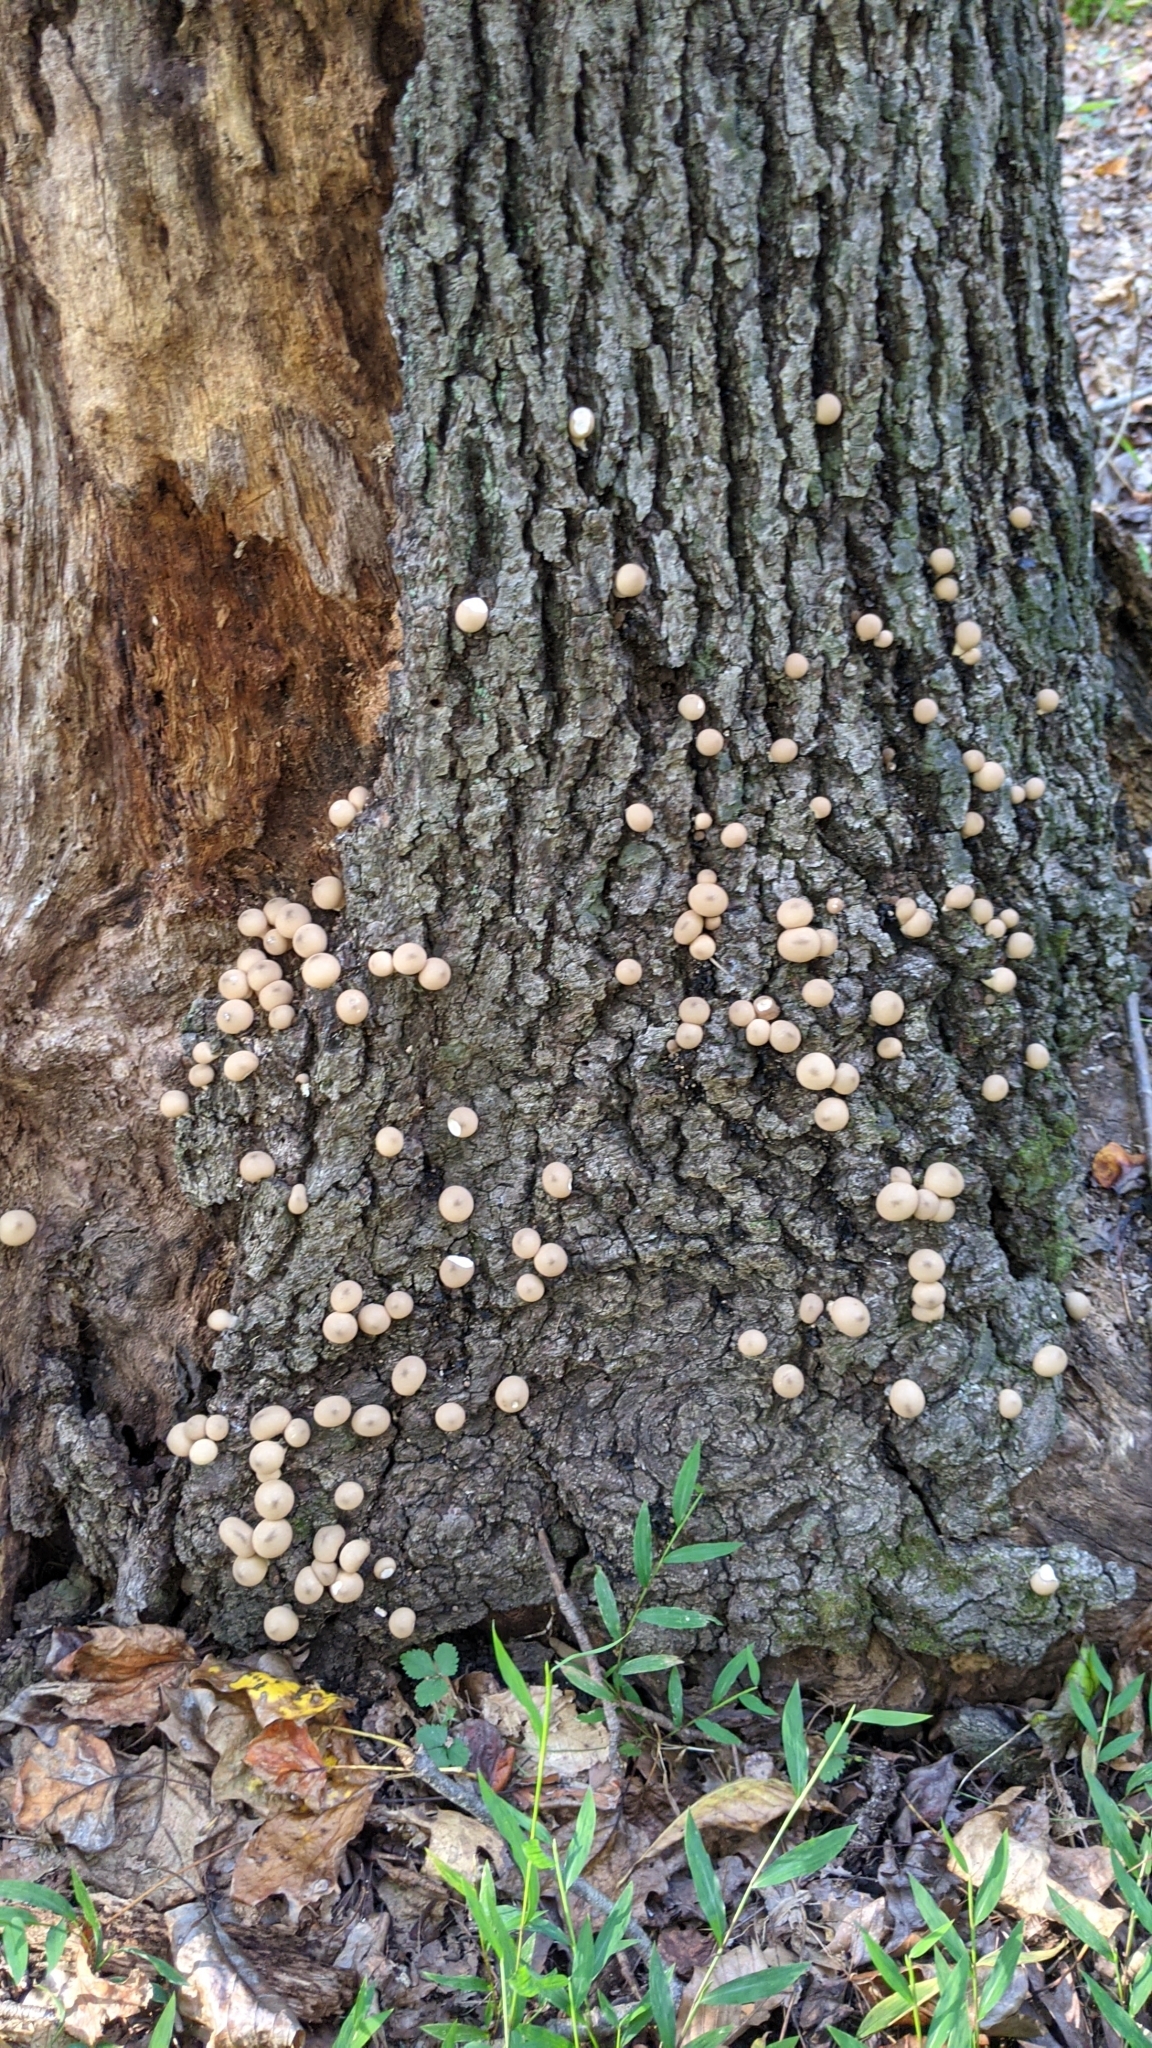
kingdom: Fungi
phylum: Basidiomycota
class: Agaricomycetes
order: Agaricales
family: Lycoperdaceae
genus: Apioperdon
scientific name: Apioperdon pyriforme
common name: Pear-shaped puffball
